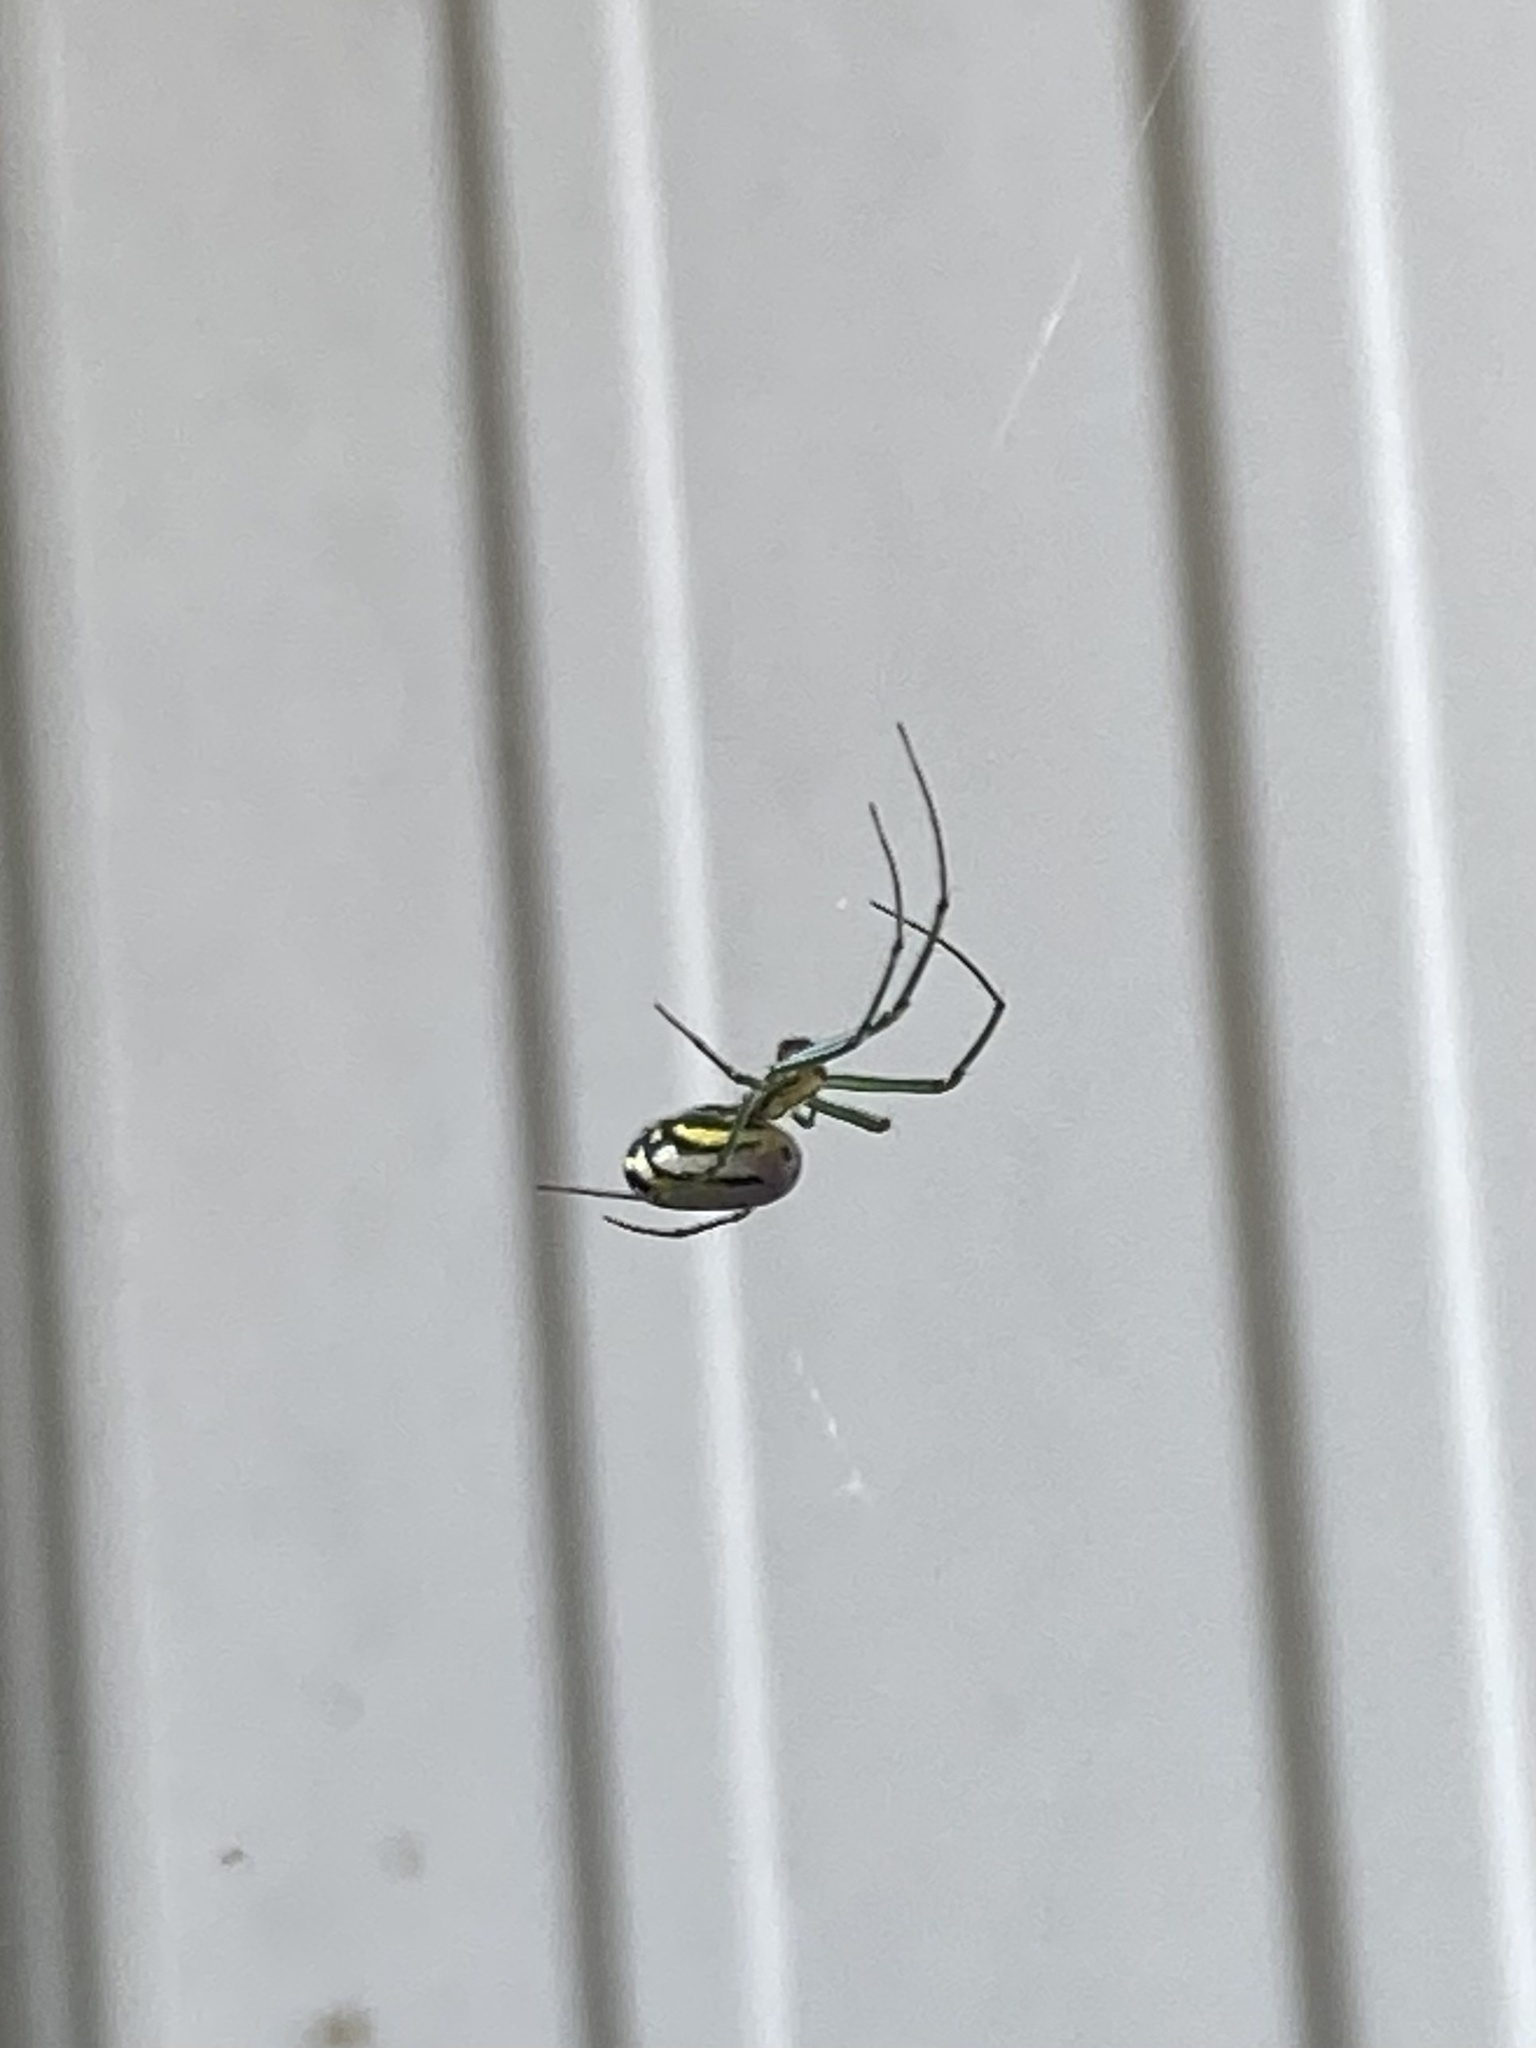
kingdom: Animalia
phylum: Arthropoda
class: Arachnida
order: Araneae
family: Tetragnathidae
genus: Leucauge
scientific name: Leucauge venusta
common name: Longjawed orb weavers
